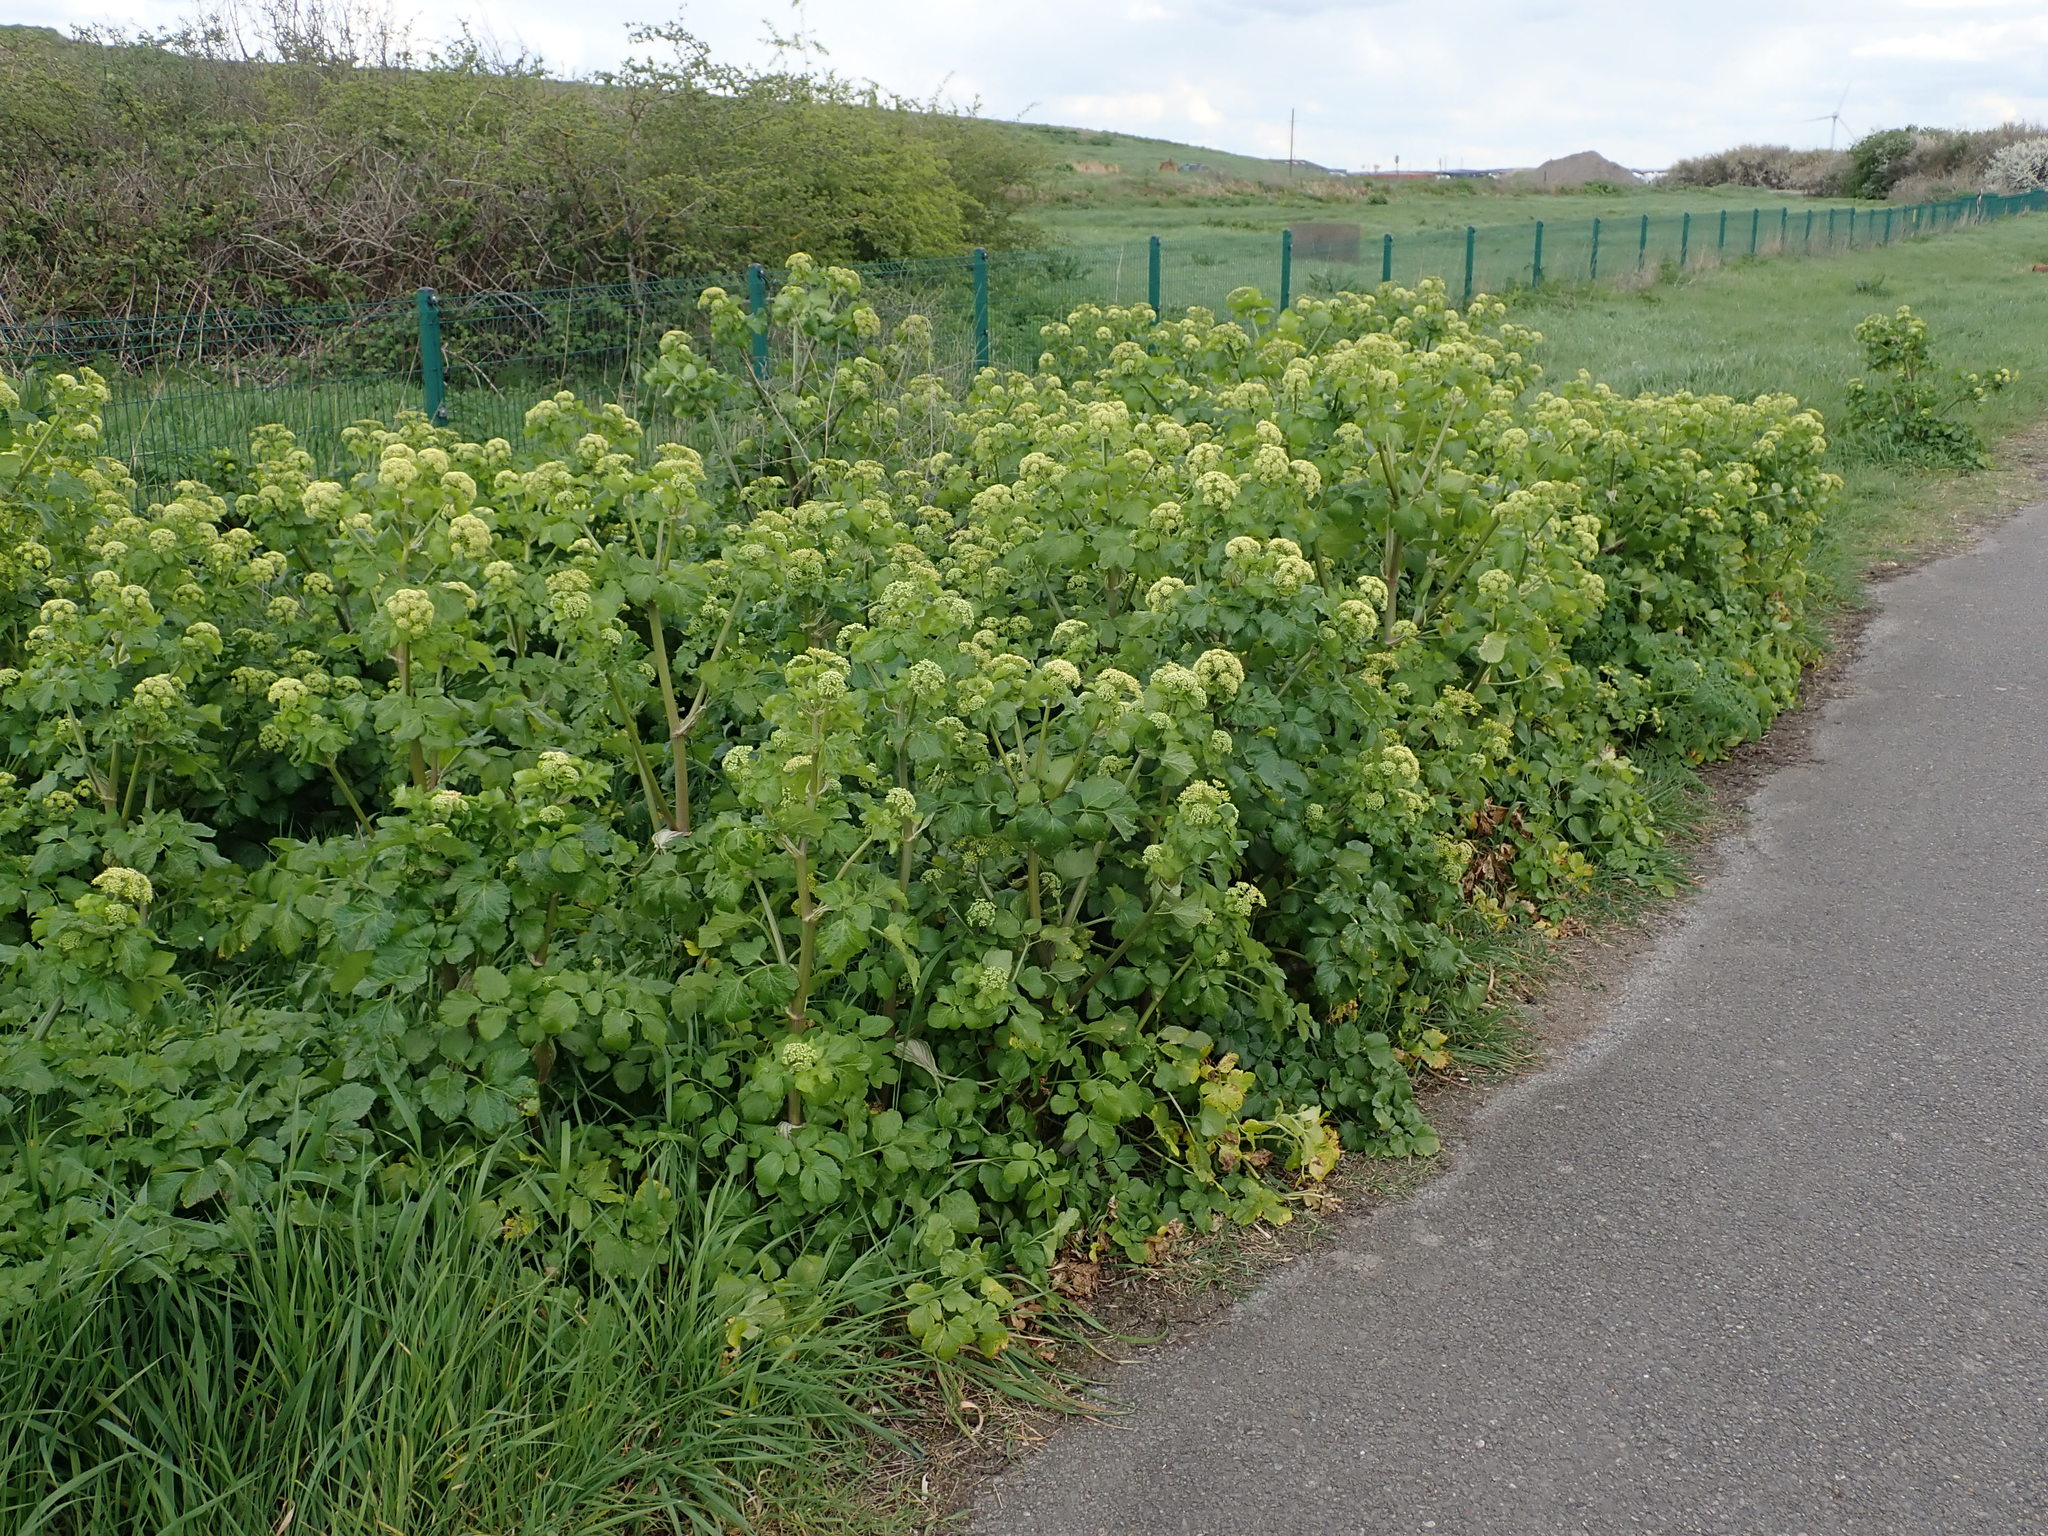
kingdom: Plantae
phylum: Tracheophyta
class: Magnoliopsida
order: Apiales
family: Apiaceae
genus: Smyrnium
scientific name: Smyrnium olusatrum
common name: Alexanders
